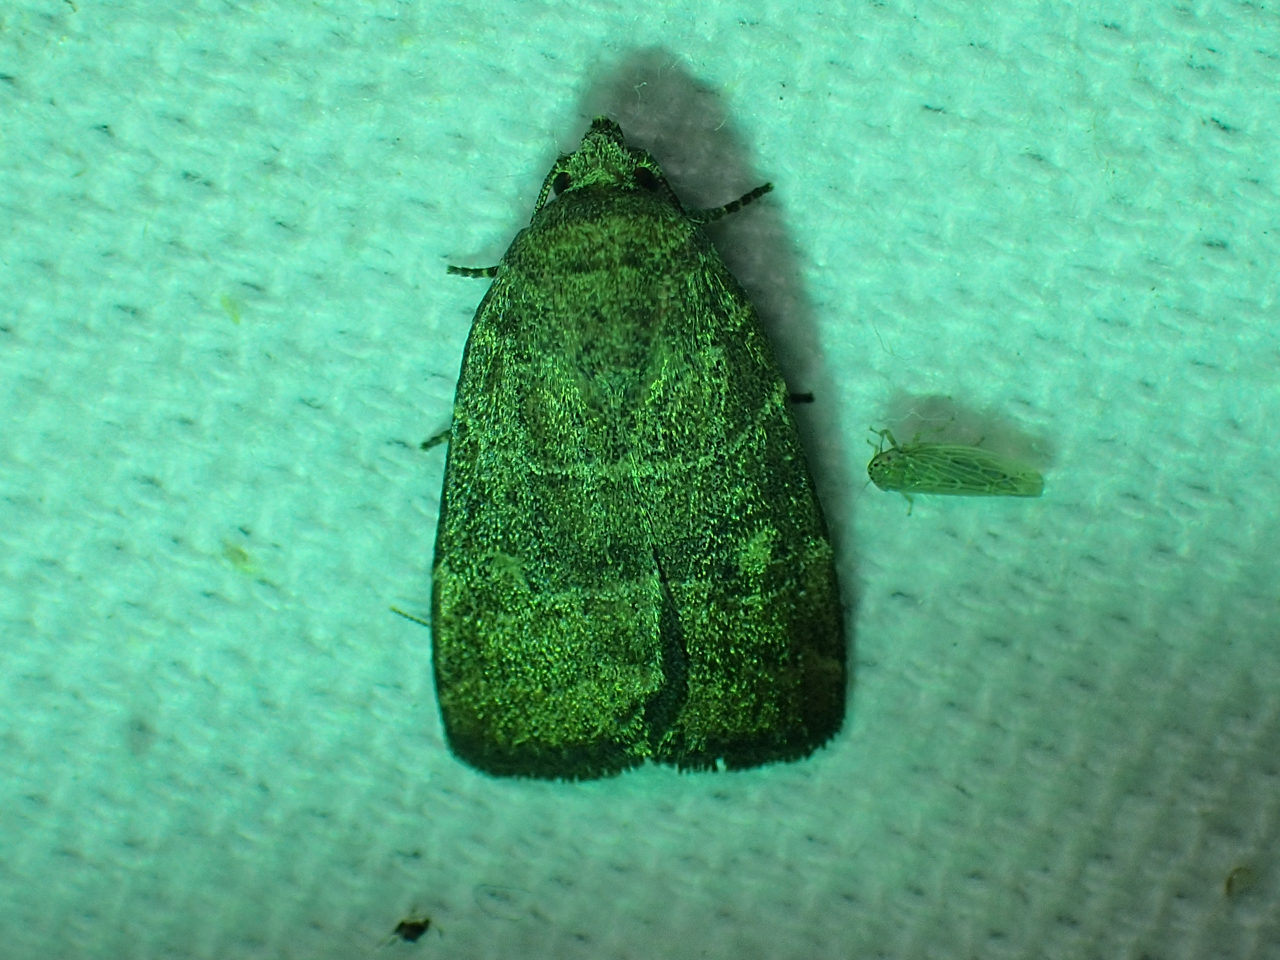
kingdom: Animalia
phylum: Arthropoda
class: Insecta
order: Lepidoptera
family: Noctuidae
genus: Elaphria
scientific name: Elaphria grata
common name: Grateful midget moth
